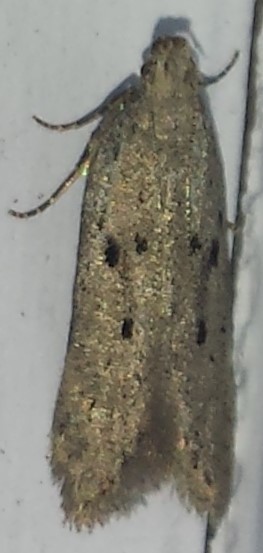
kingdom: Animalia
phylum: Arthropoda
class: Insecta
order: Lepidoptera
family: Gelechiidae
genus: Athrips
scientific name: Athrips mouffetella
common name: Dotted grey groundling
